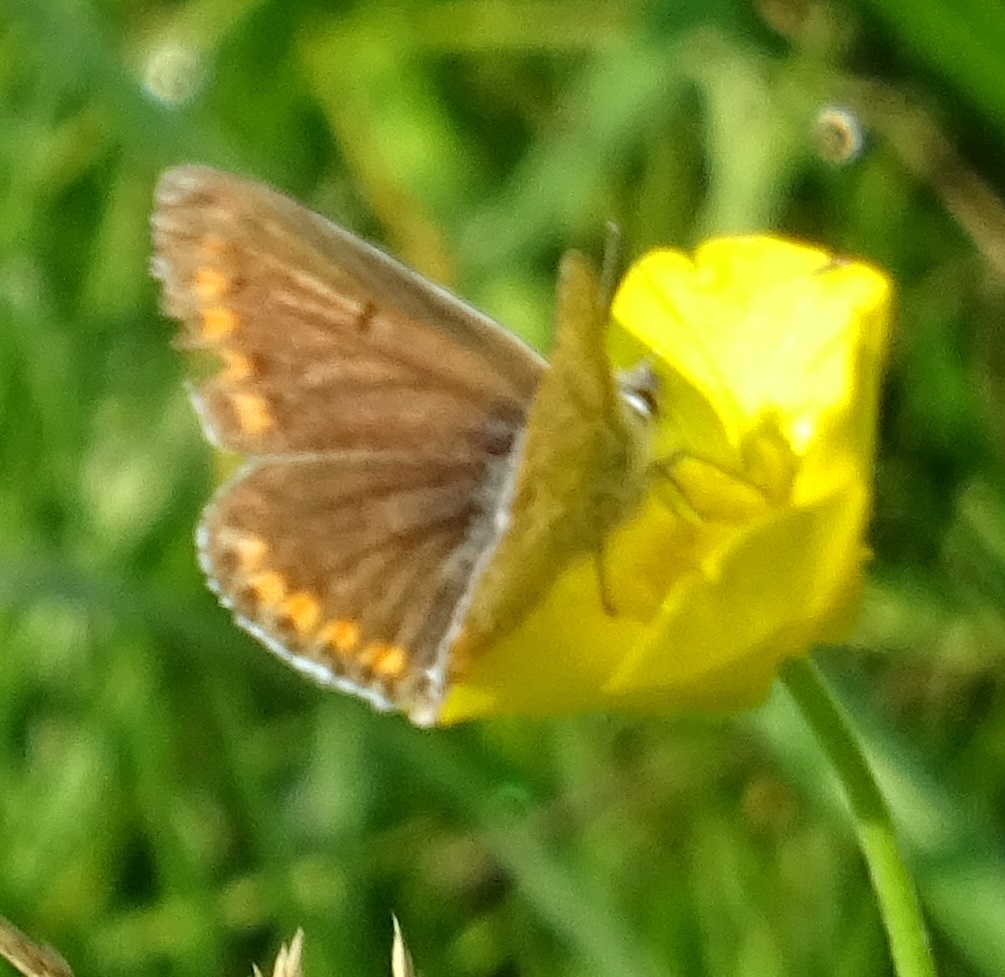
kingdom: Animalia
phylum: Arthropoda
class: Insecta
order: Lepidoptera
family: Lycaenidae
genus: Aricia
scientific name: Aricia agestis
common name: Brown argus
